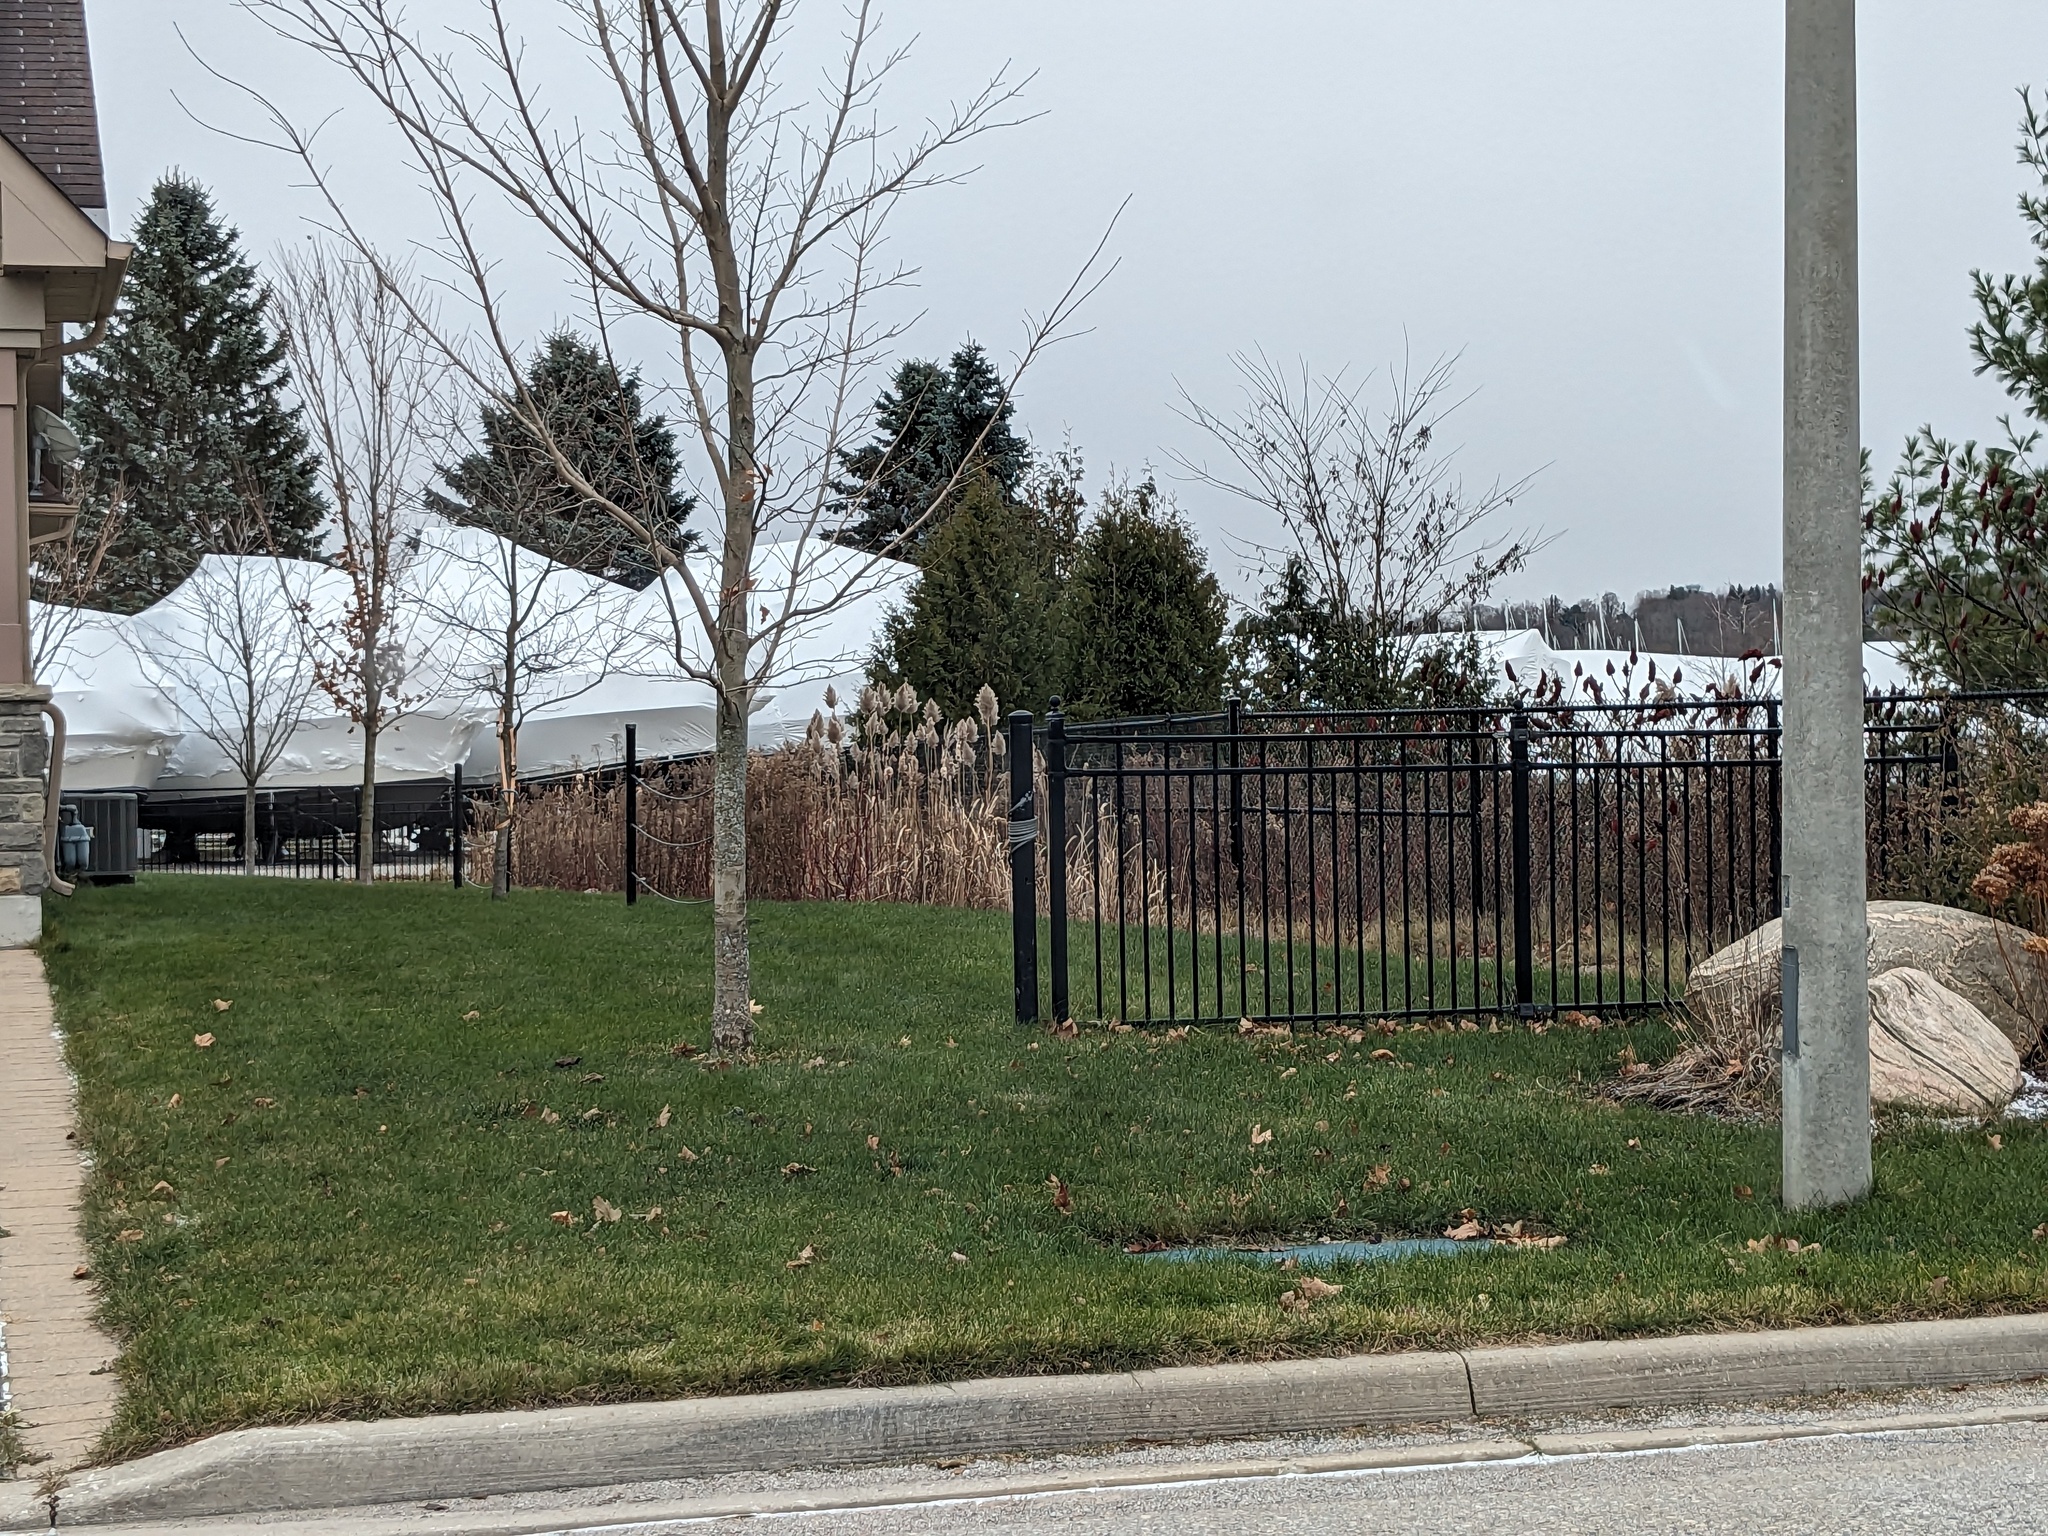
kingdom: Plantae
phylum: Tracheophyta
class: Liliopsida
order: Poales
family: Poaceae
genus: Phragmites
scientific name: Phragmites australis
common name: Common reed
